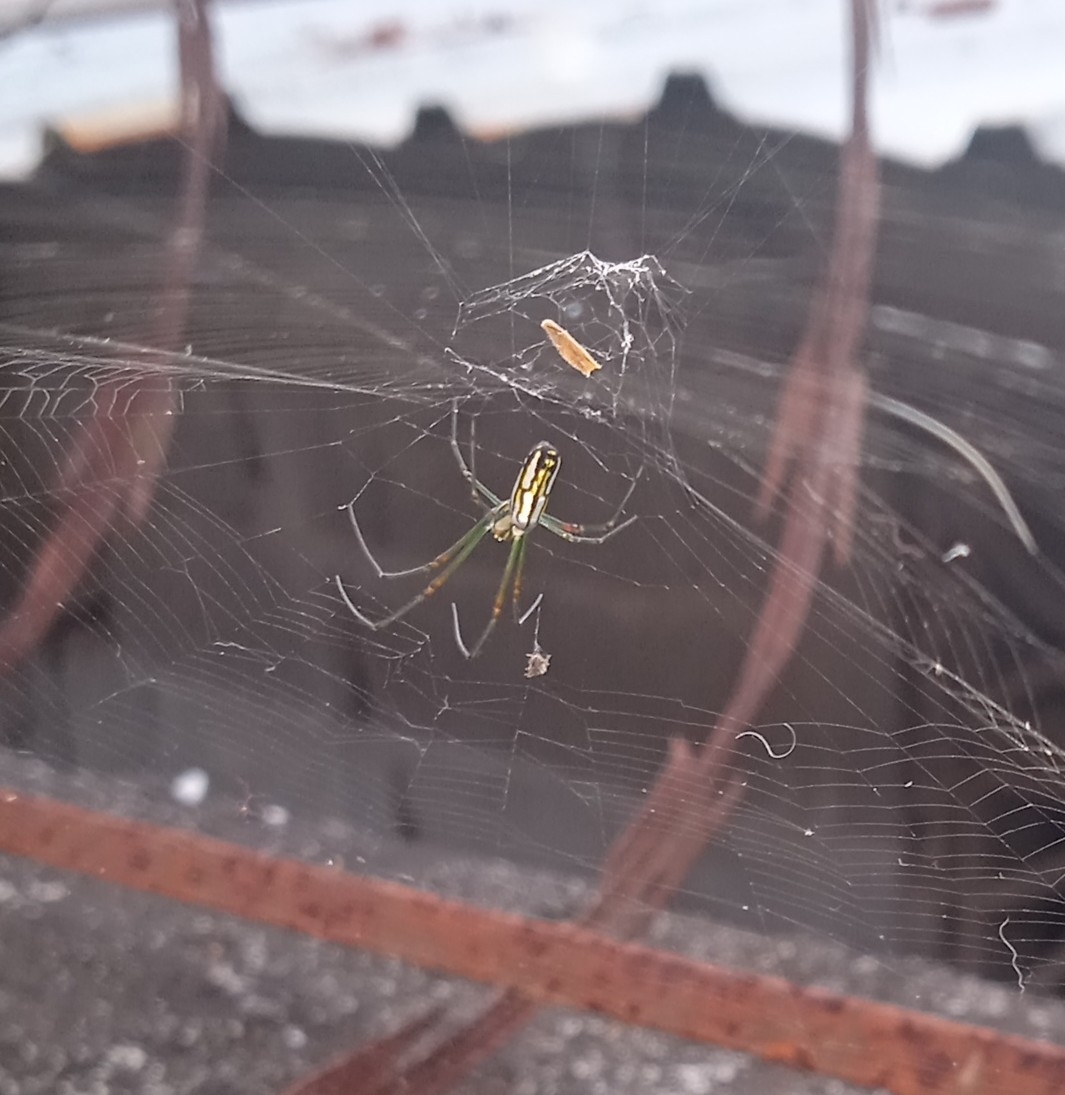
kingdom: Animalia
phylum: Arthropoda
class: Arachnida
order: Araneae
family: Tetragnathidae
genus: Leucauge
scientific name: Leucauge argyra
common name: Longjawed orb weavers
